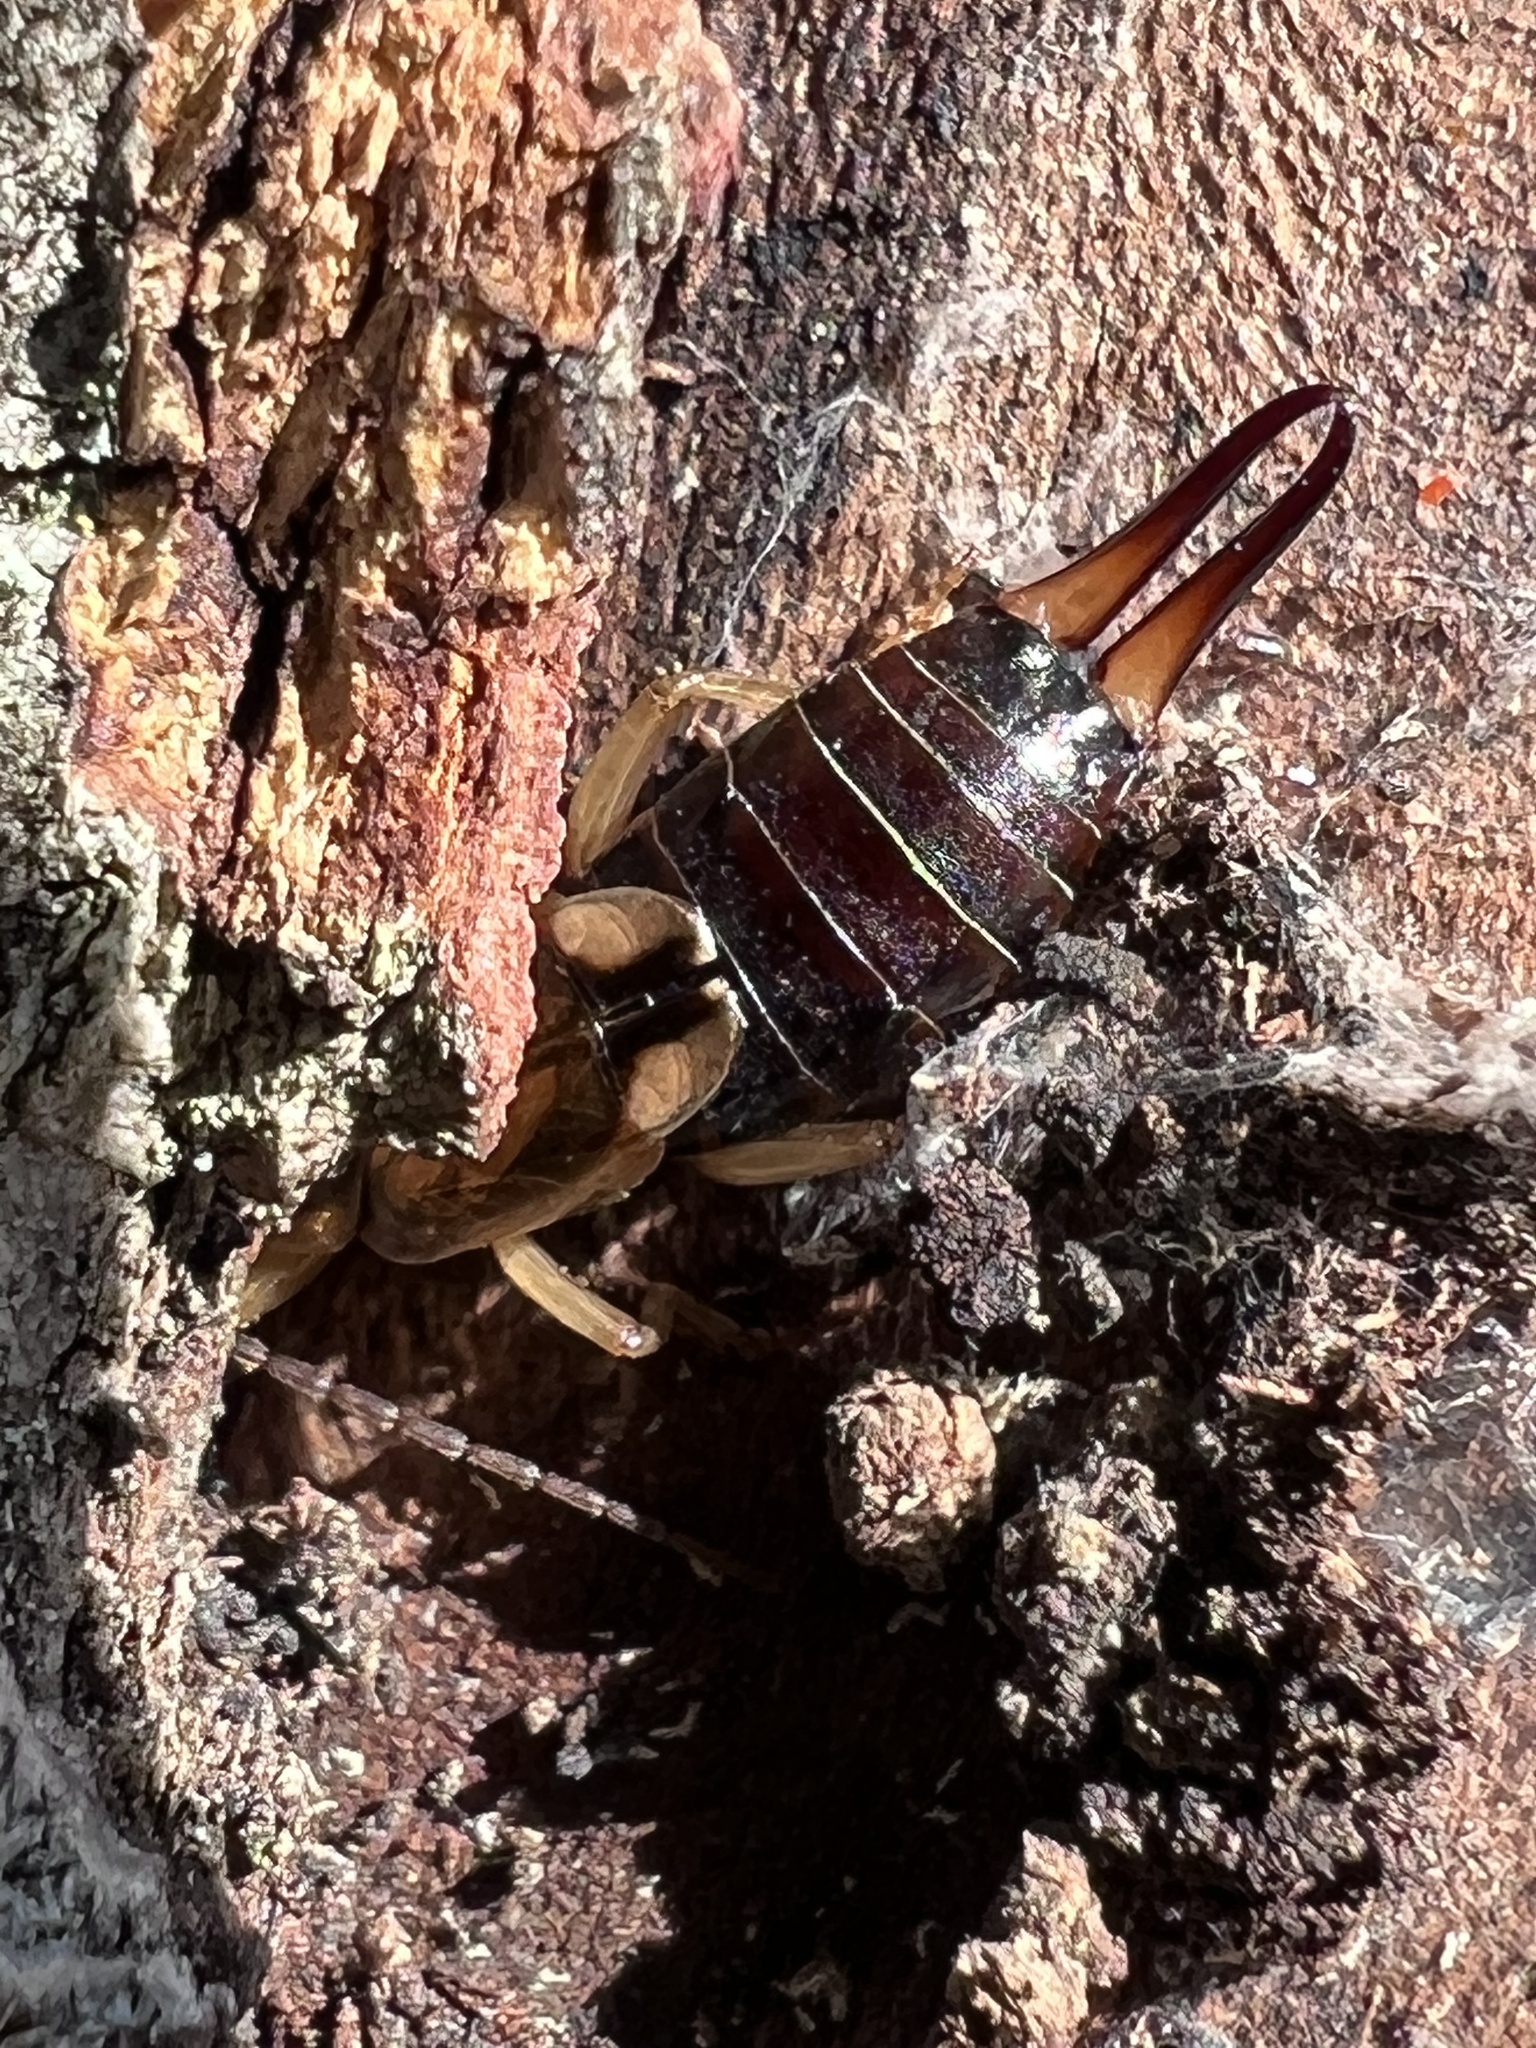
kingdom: Animalia
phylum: Arthropoda
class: Insecta
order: Dermaptera
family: Forficulidae
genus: Forficula
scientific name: Forficula
